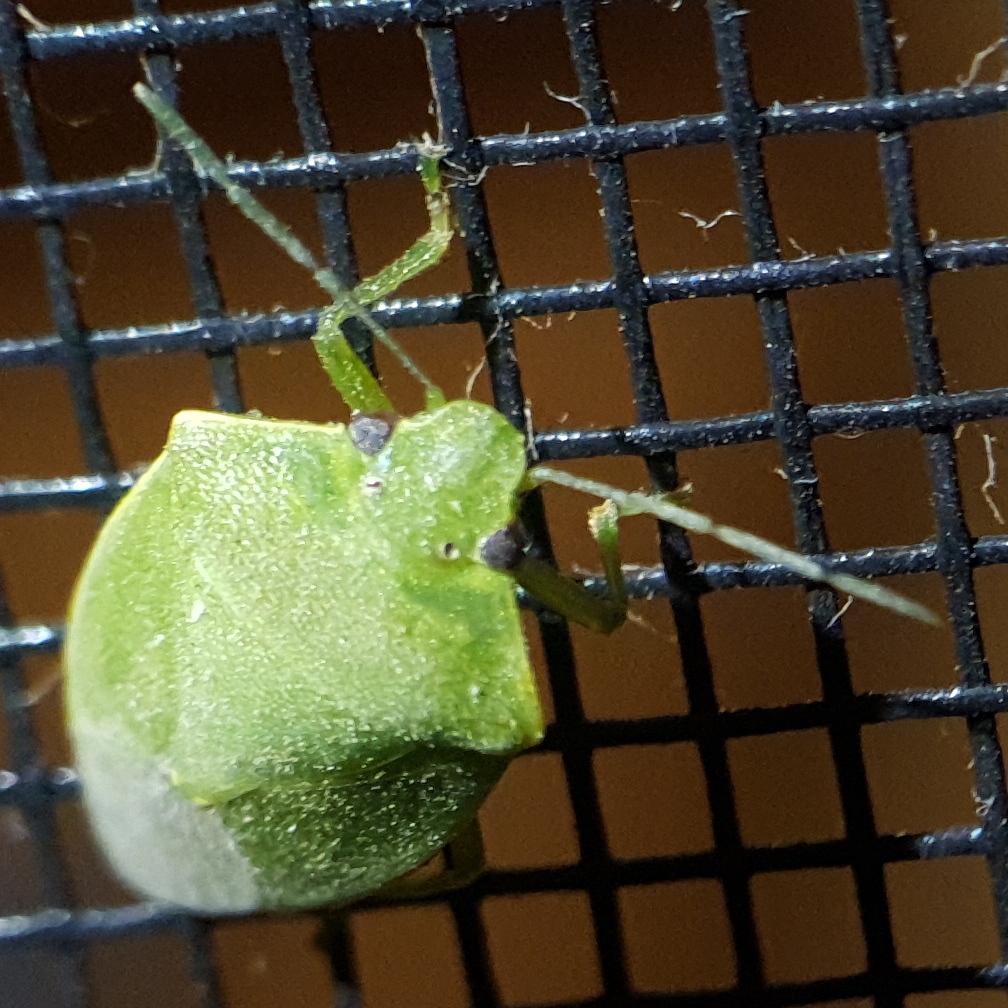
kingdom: Animalia
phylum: Arthropoda
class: Insecta
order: Hemiptera
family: Pentatomidae
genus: Acrosternum
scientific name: Acrosternum millierei
